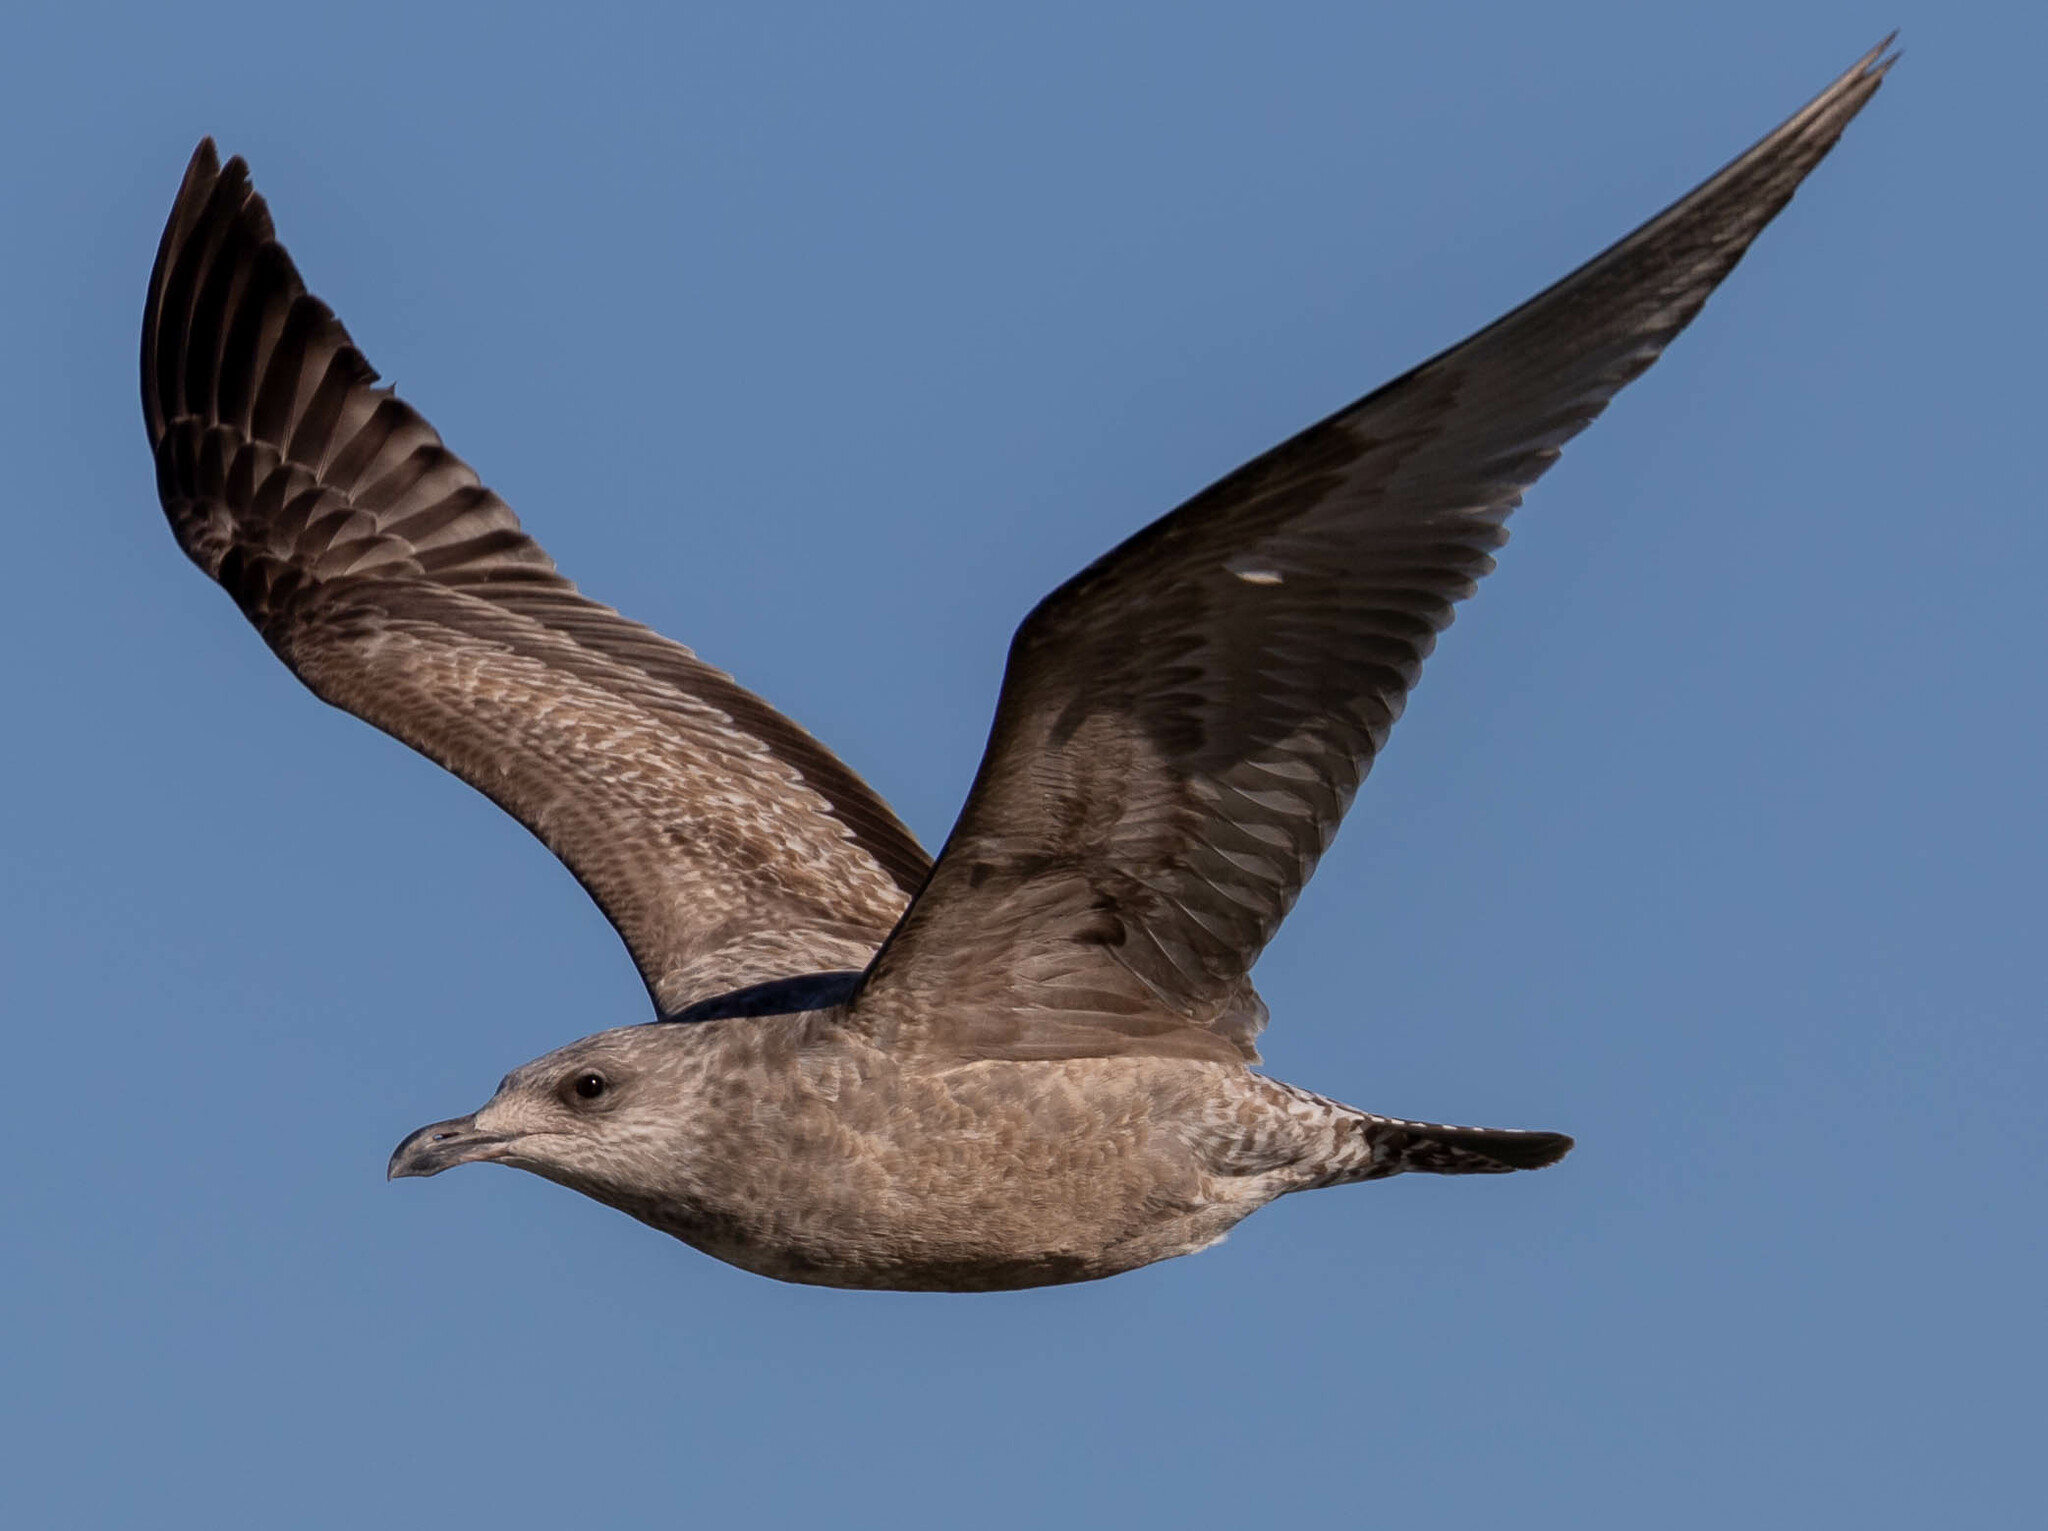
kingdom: Animalia
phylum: Chordata
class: Aves
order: Charadriiformes
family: Laridae
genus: Larus
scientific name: Larus argentatus
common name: Herring gull
